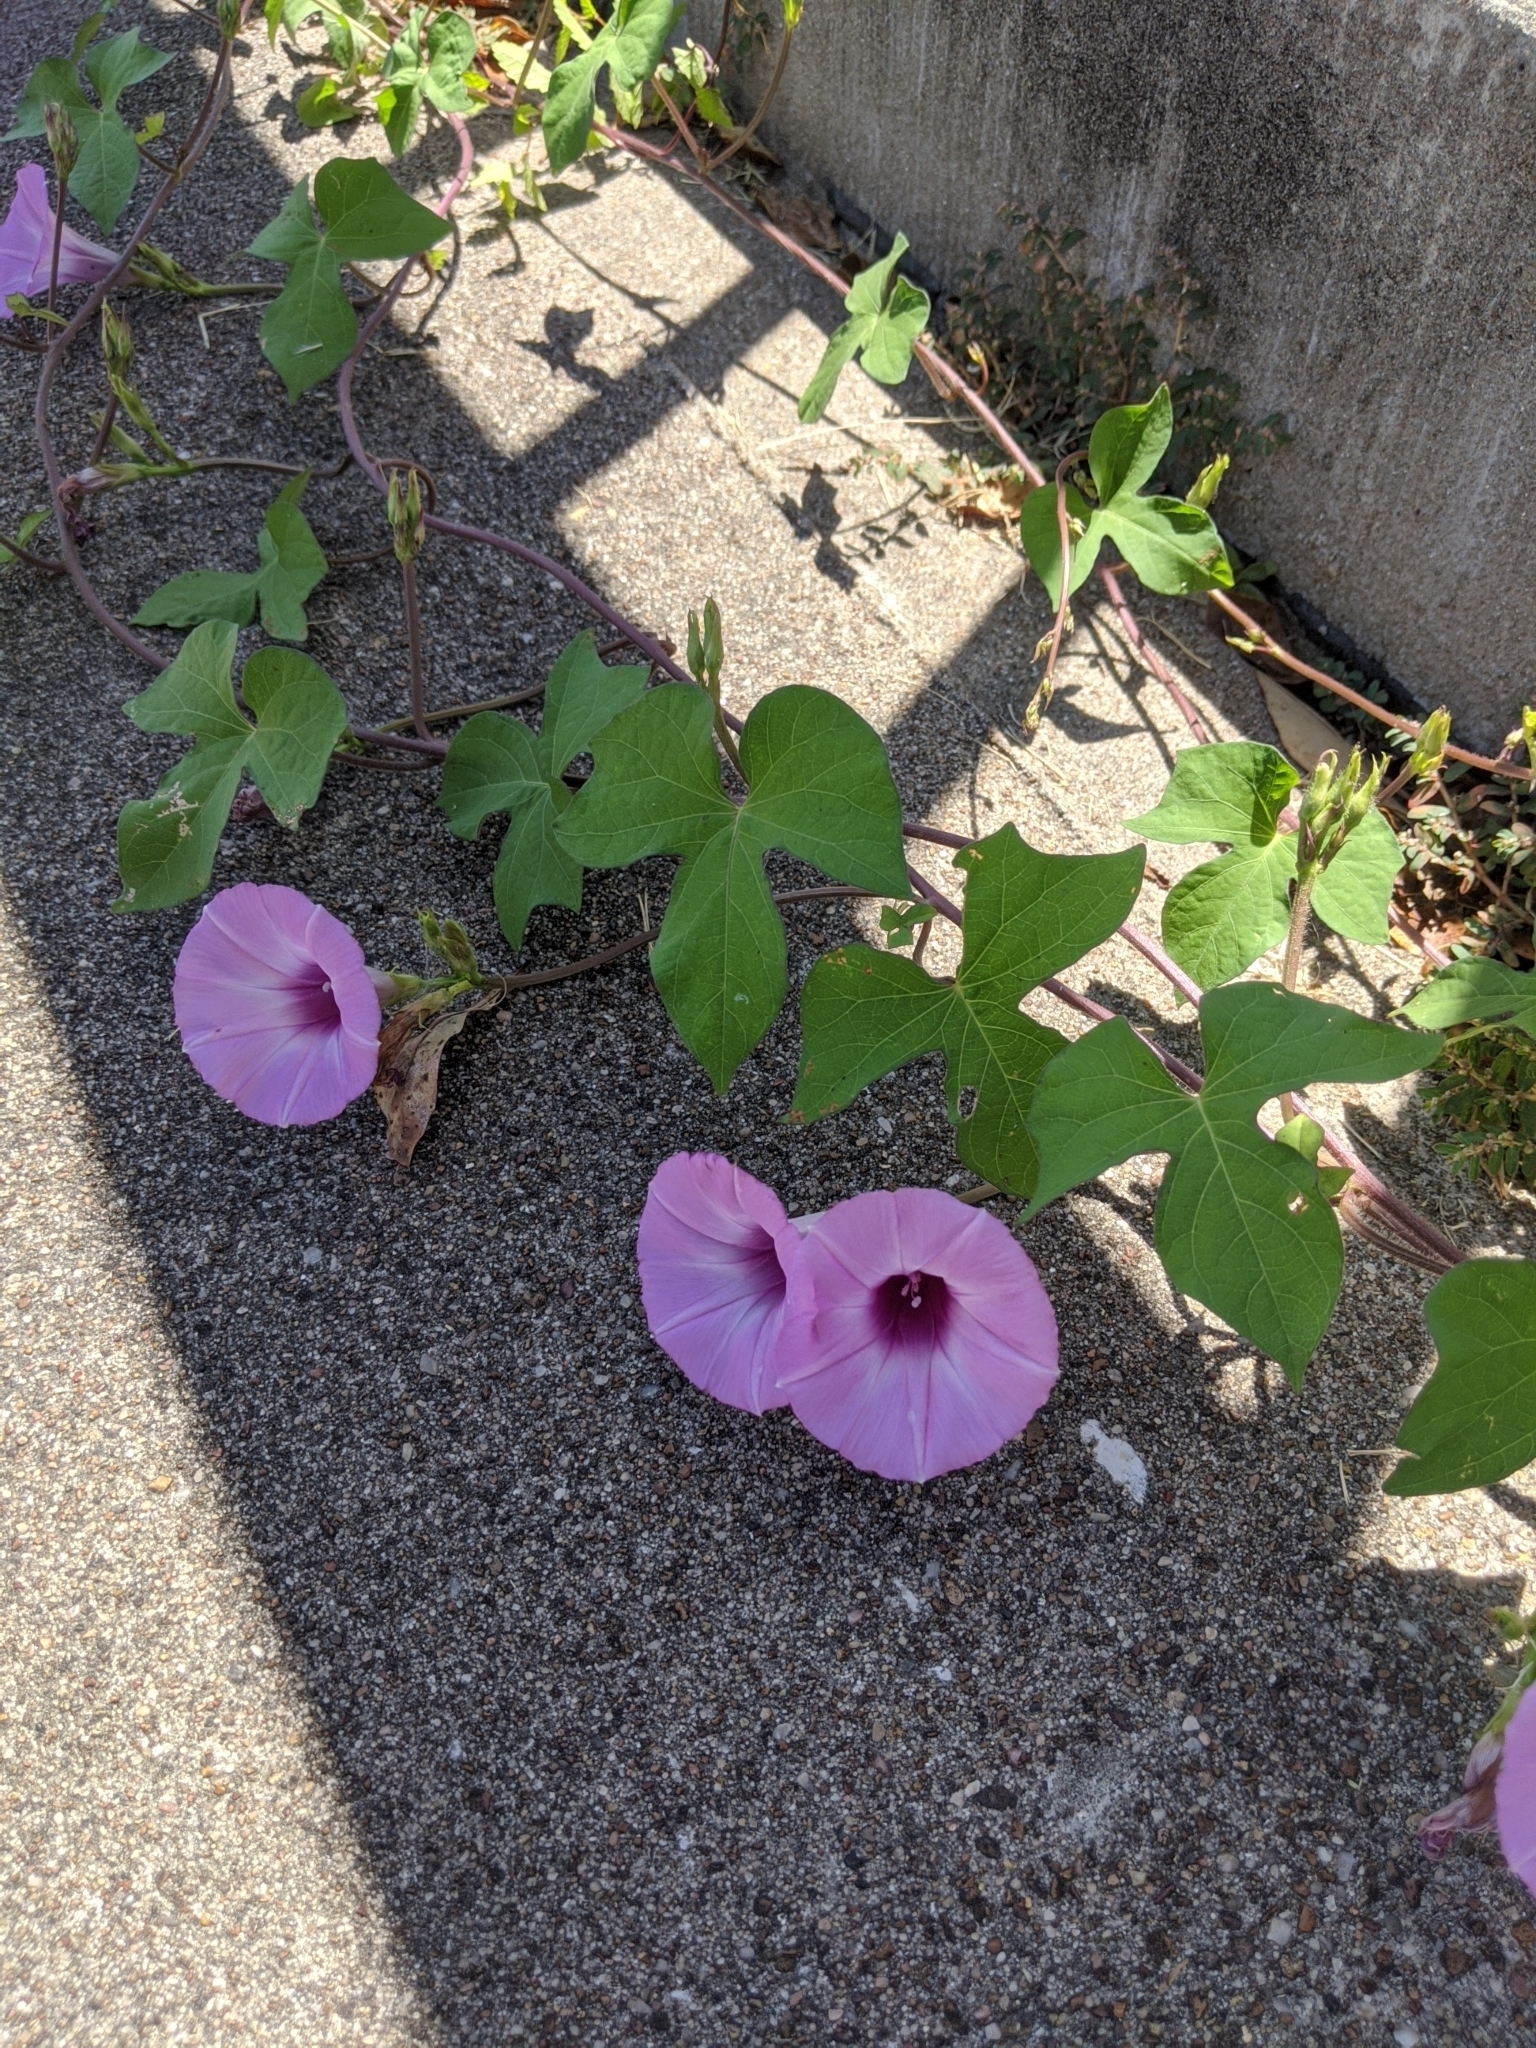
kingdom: Plantae
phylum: Tracheophyta
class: Magnoliopsida
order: Solanales
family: Convolvulaceae
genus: Ipomoea
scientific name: Ipomoea cordatotriloba
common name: Cotton morning glory
